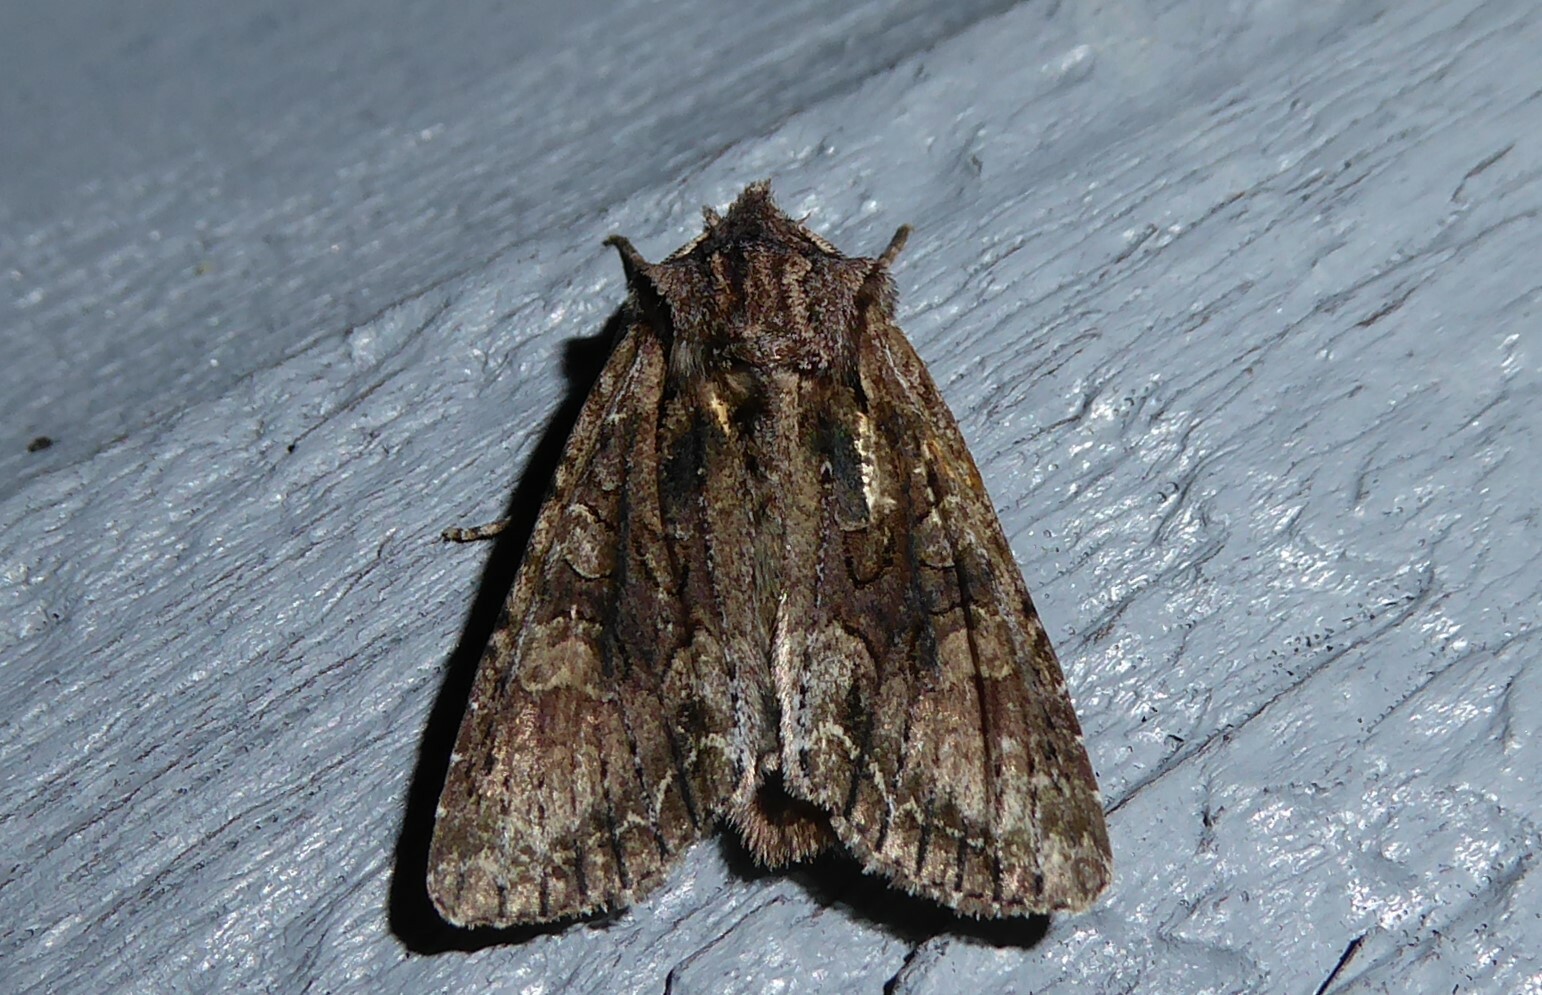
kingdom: Animalia
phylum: Arthropoda
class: Insecta
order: Lepidoptera
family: Noctuidae
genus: Ichneutica
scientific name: Ichneutica mutans
